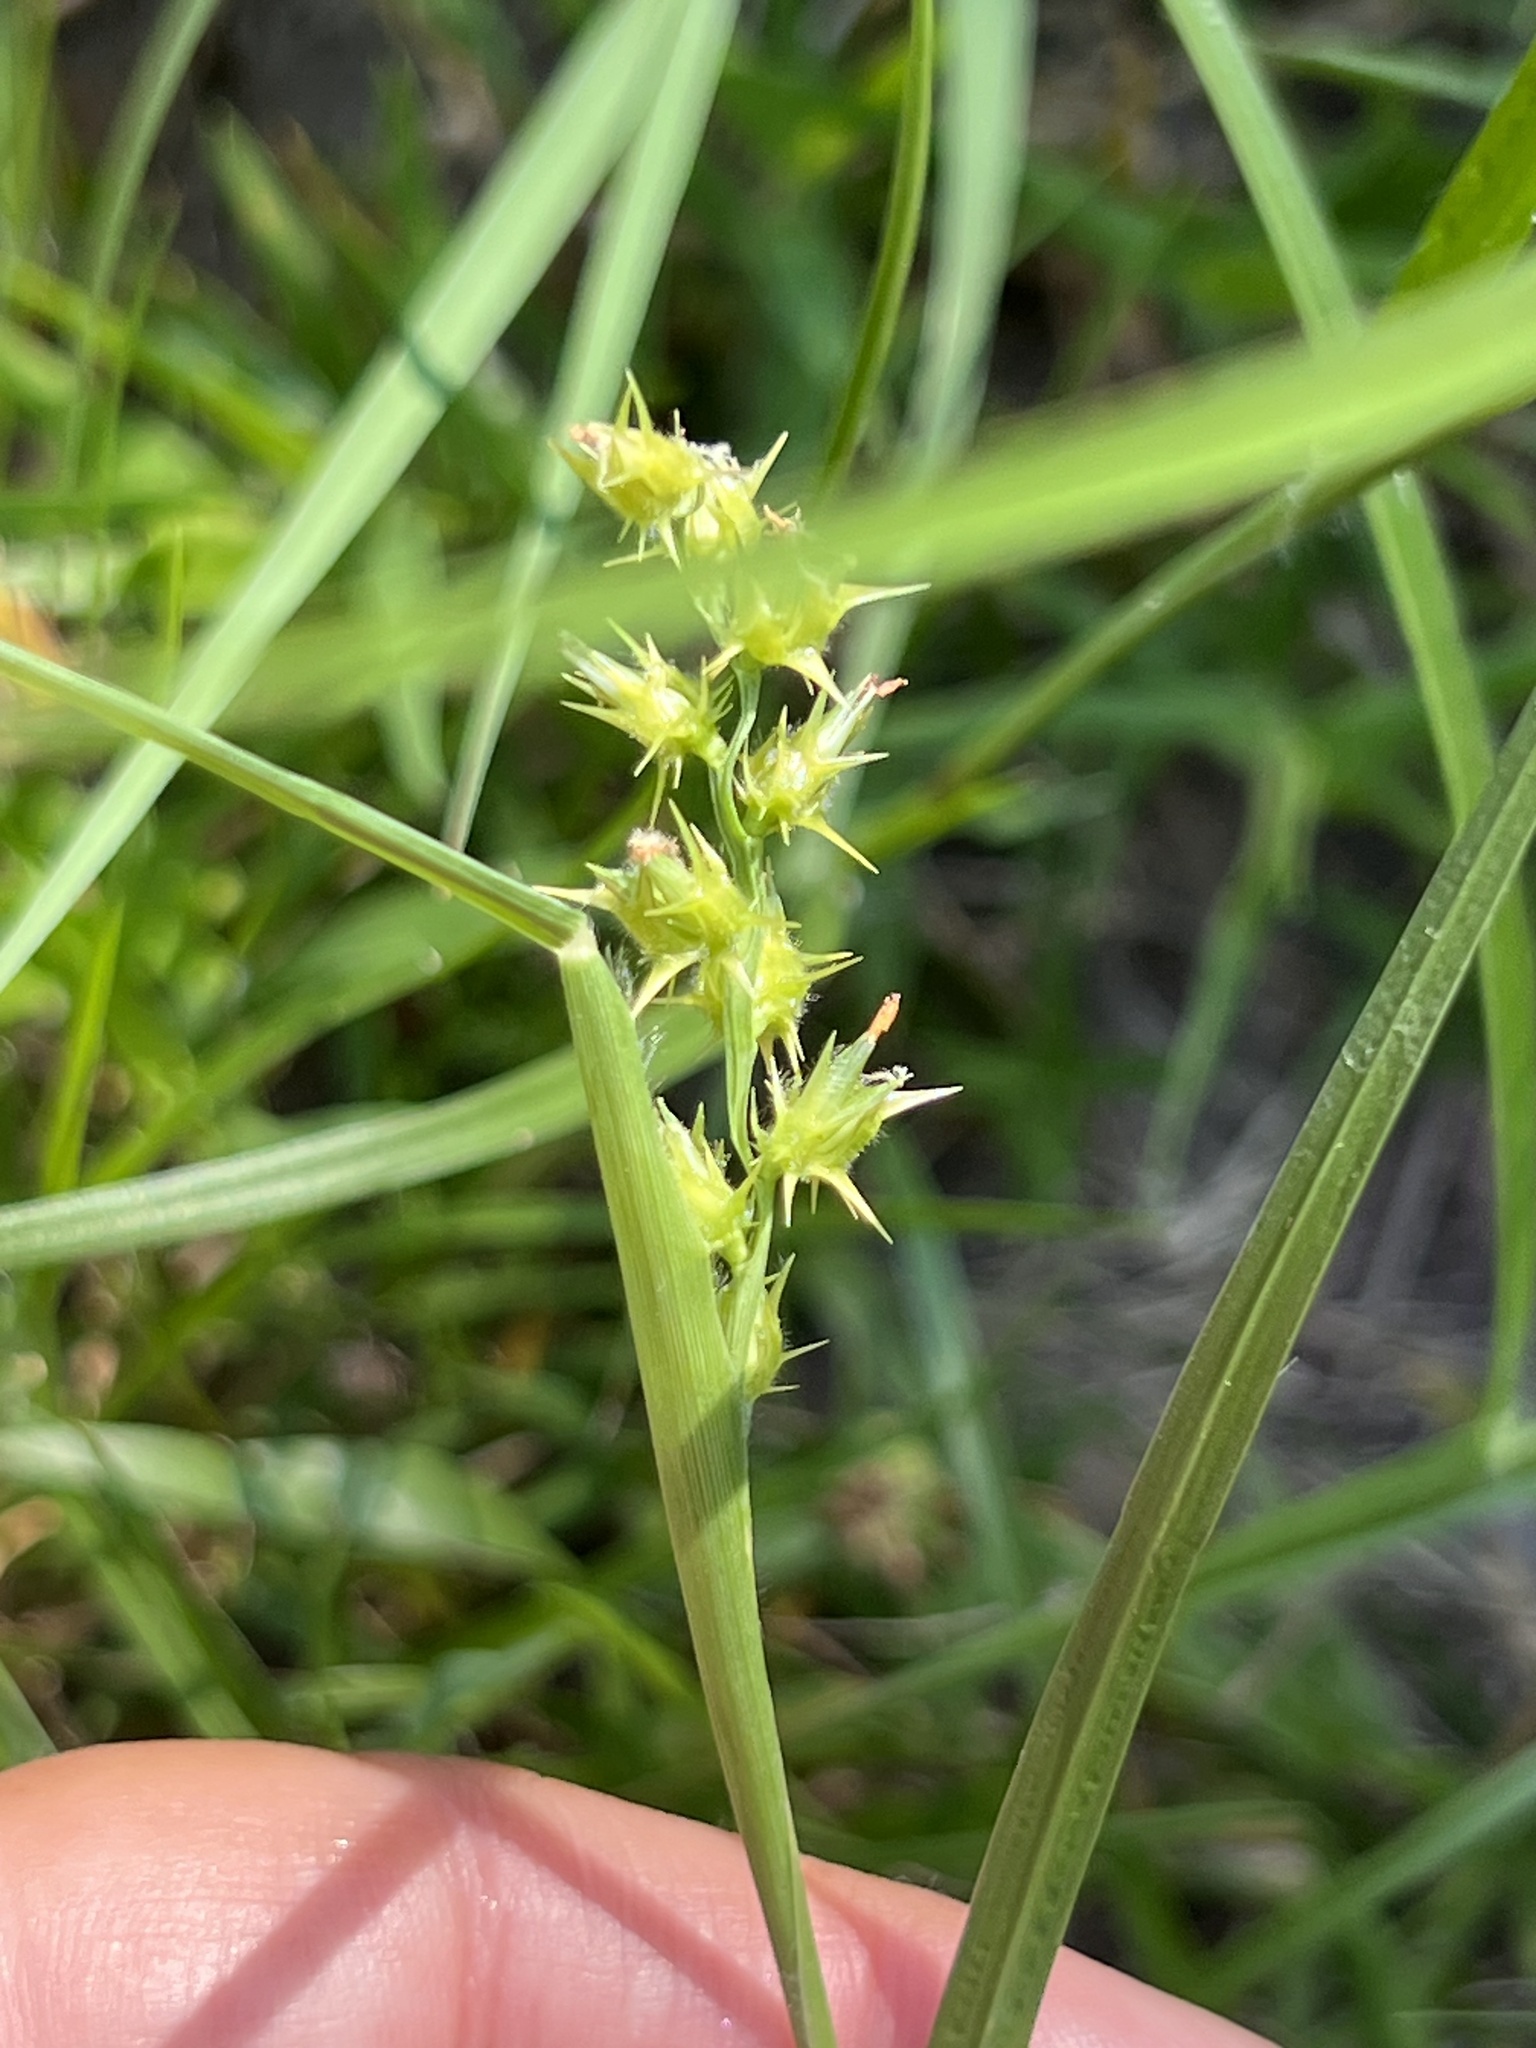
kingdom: Plantae
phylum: Tracheophyta
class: Liliopsida
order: Poales
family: Poaceae
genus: Cenchrus
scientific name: Cenchrus spinifex
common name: Coast sandbur
